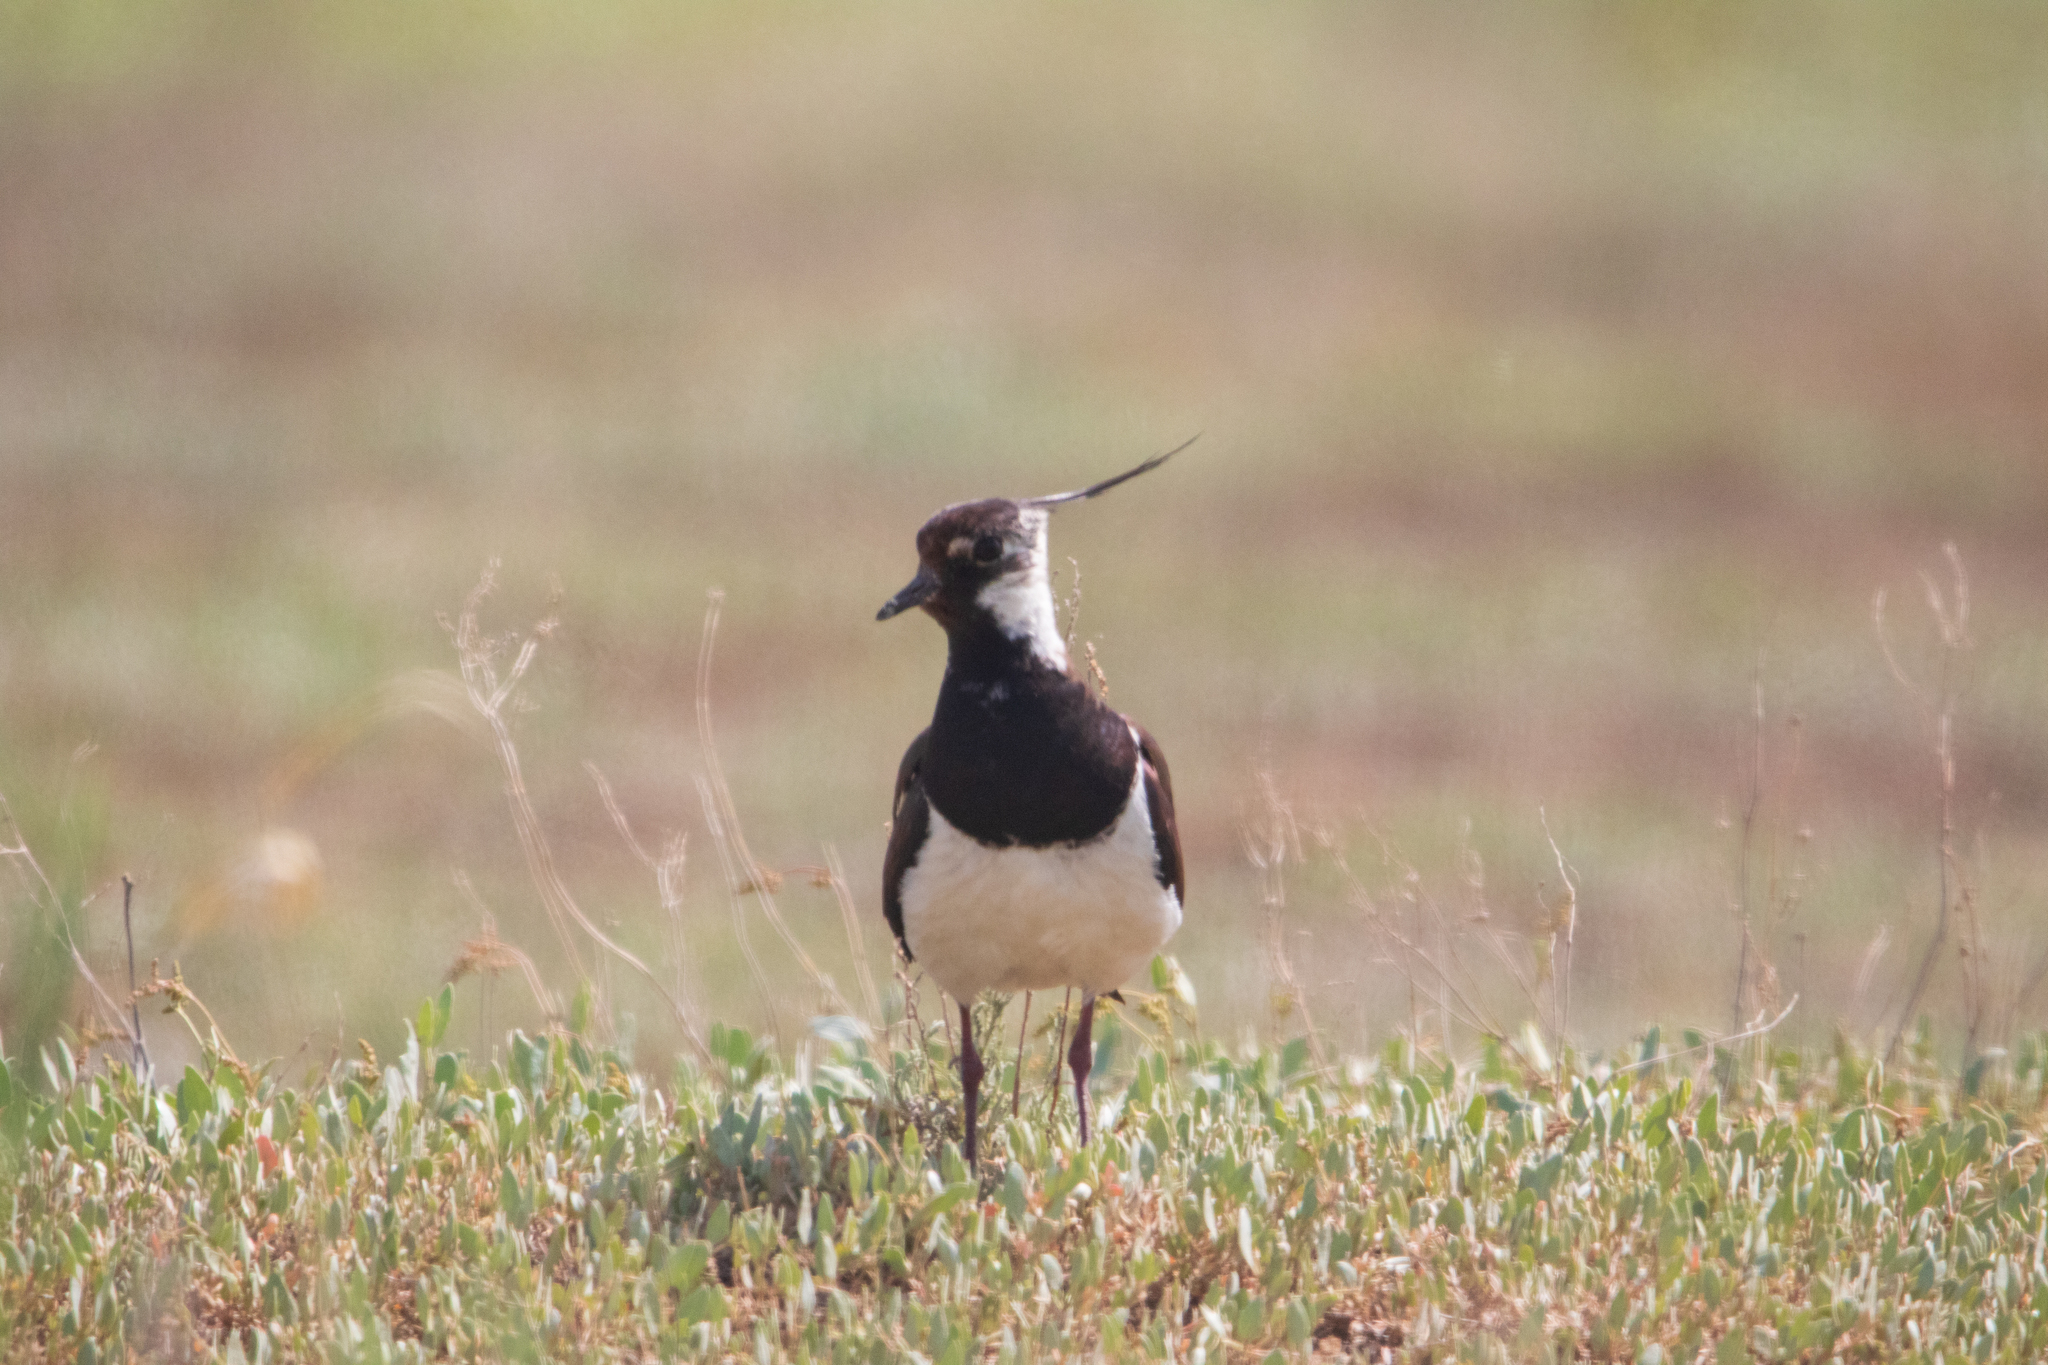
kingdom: Animalia
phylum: Chordata
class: Aves
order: Charadriiformes
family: Charadriidae
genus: Vanellus
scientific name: Vanellus vanellus
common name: Northern lapwing
